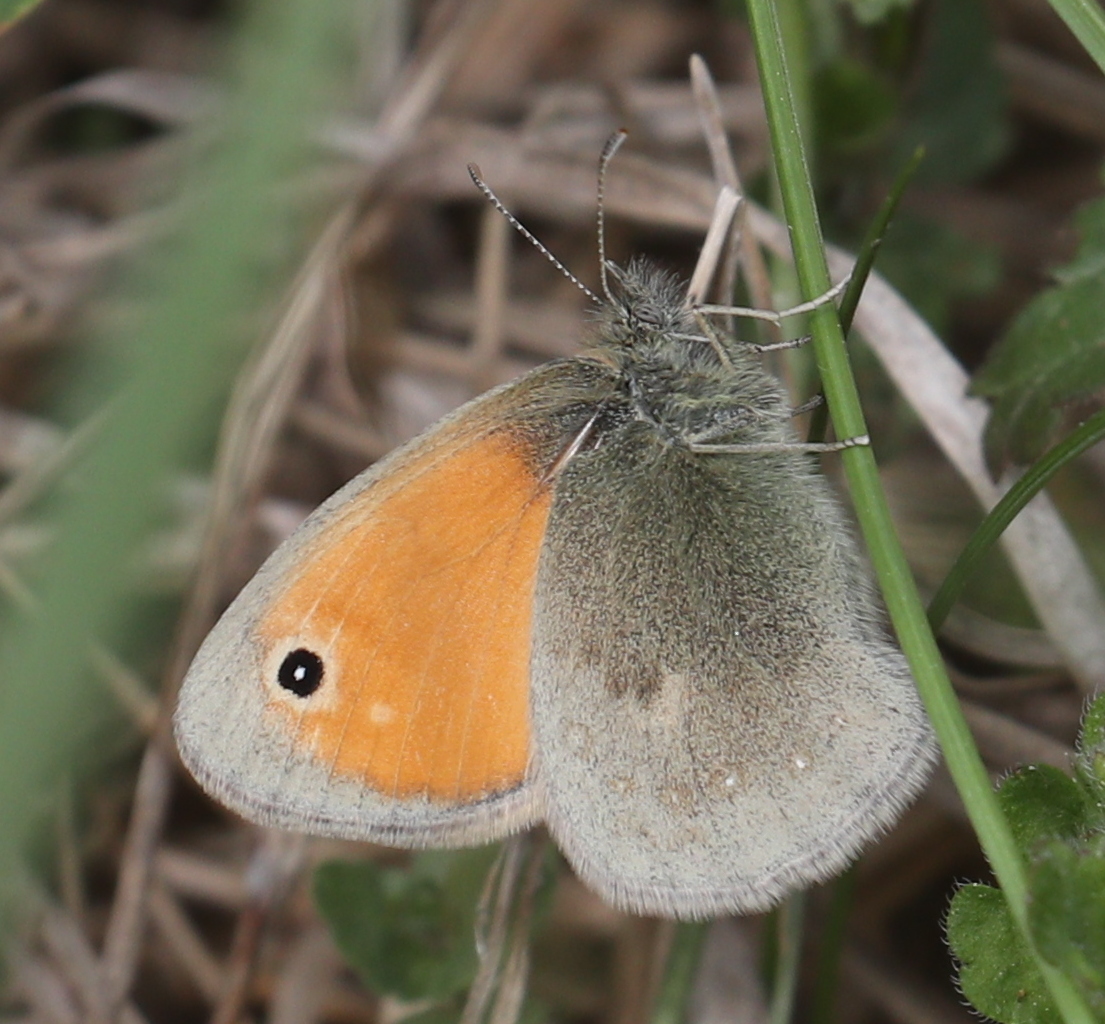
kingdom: Animalia
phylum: Arthropoda
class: Insecta
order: Lepidoptera
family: Nymphalidae
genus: Coenonympha
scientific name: Coenonympha pamphilus
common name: Small heath
